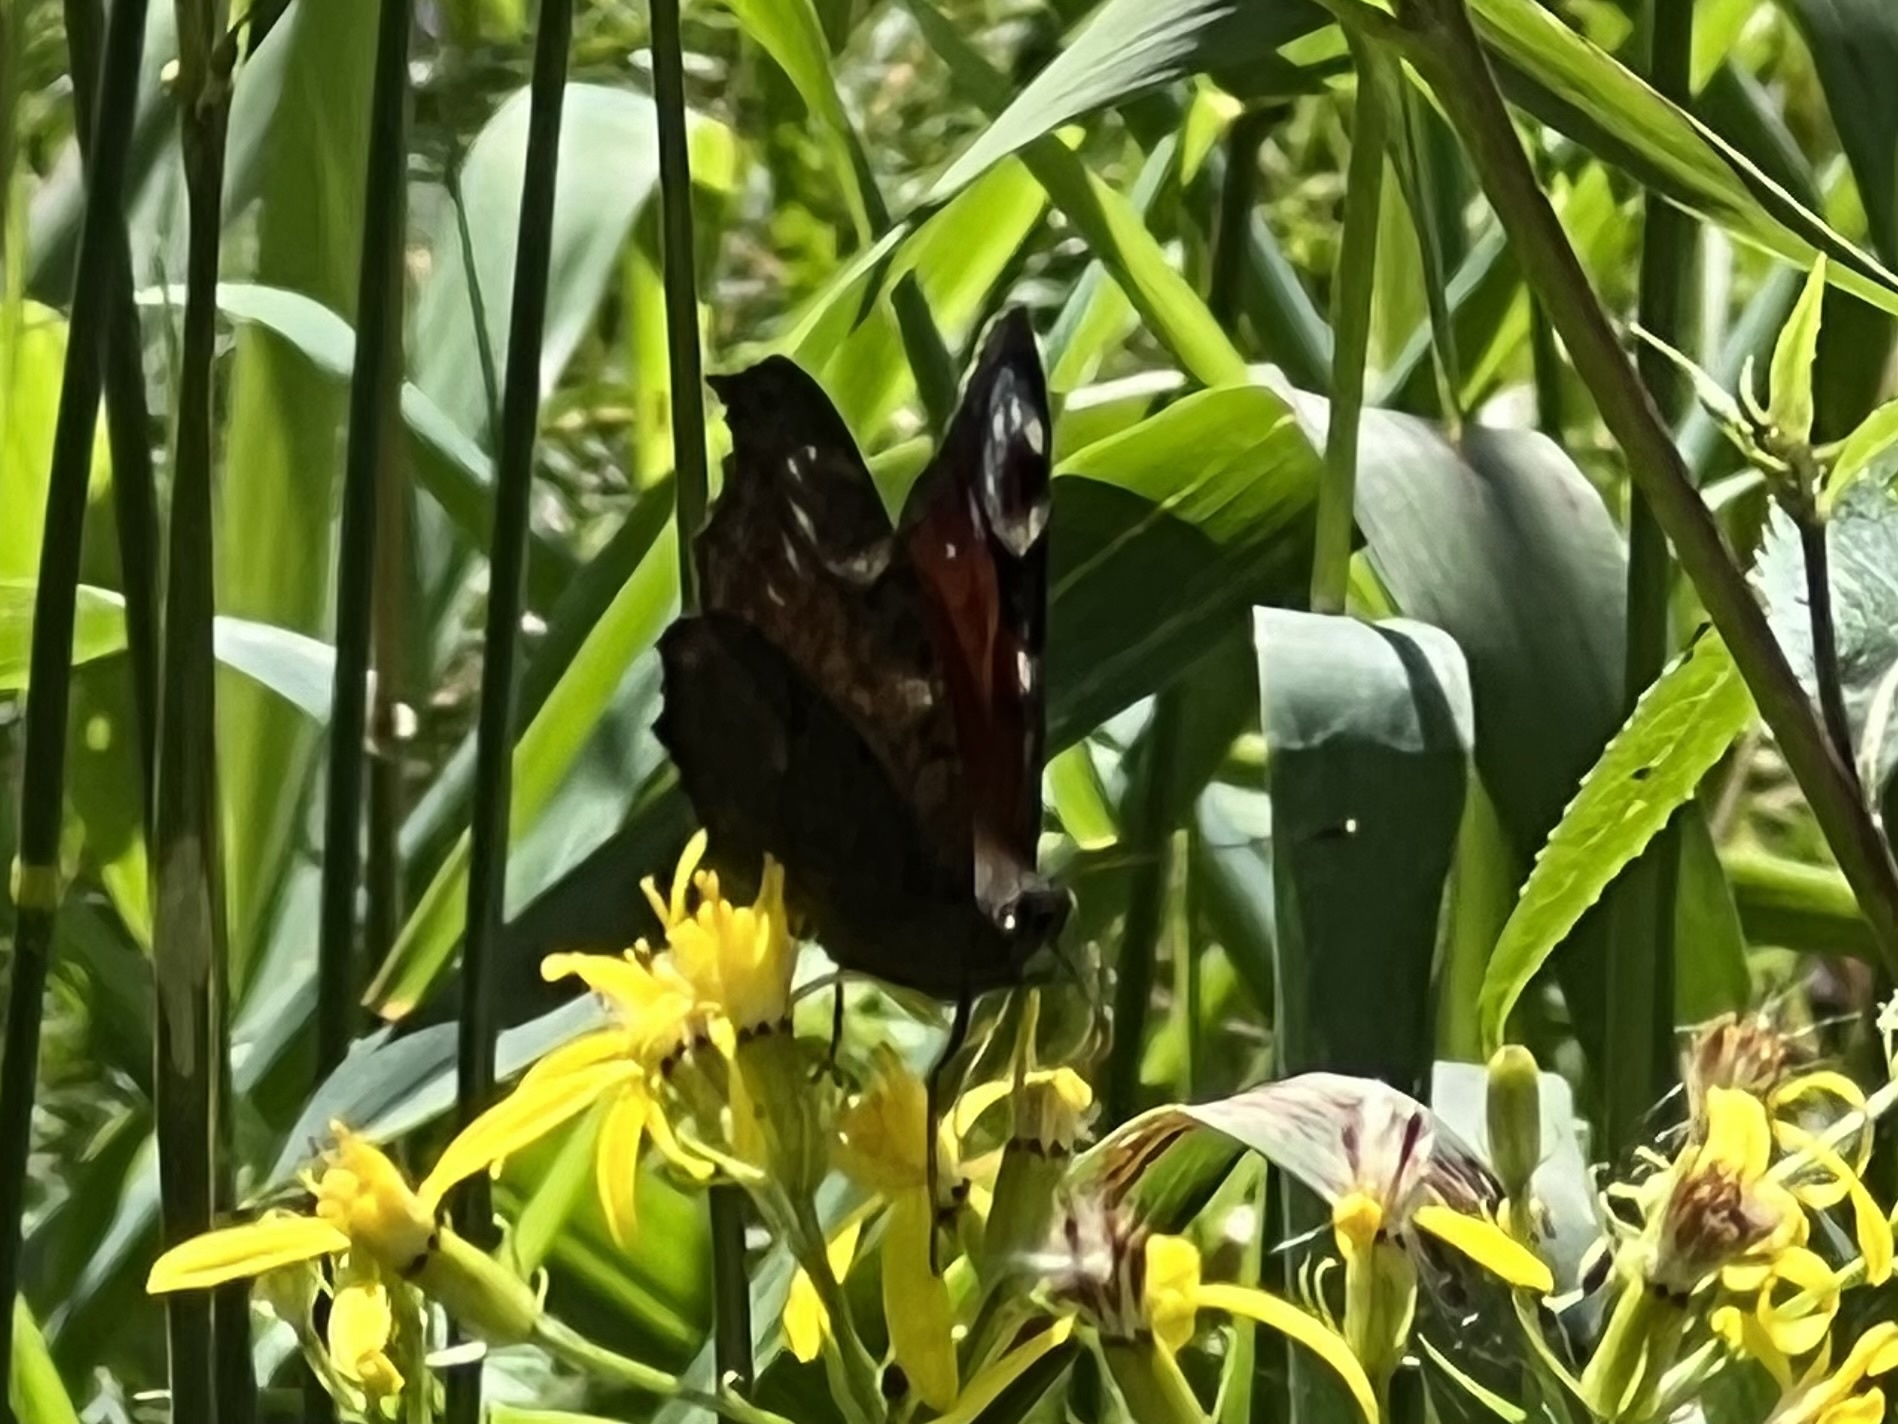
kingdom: Animalia
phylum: Arthropoda
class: Insecta
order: Lepidoptera
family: Nymphalidae
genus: Aglais
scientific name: Aglais io
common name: Peacock
